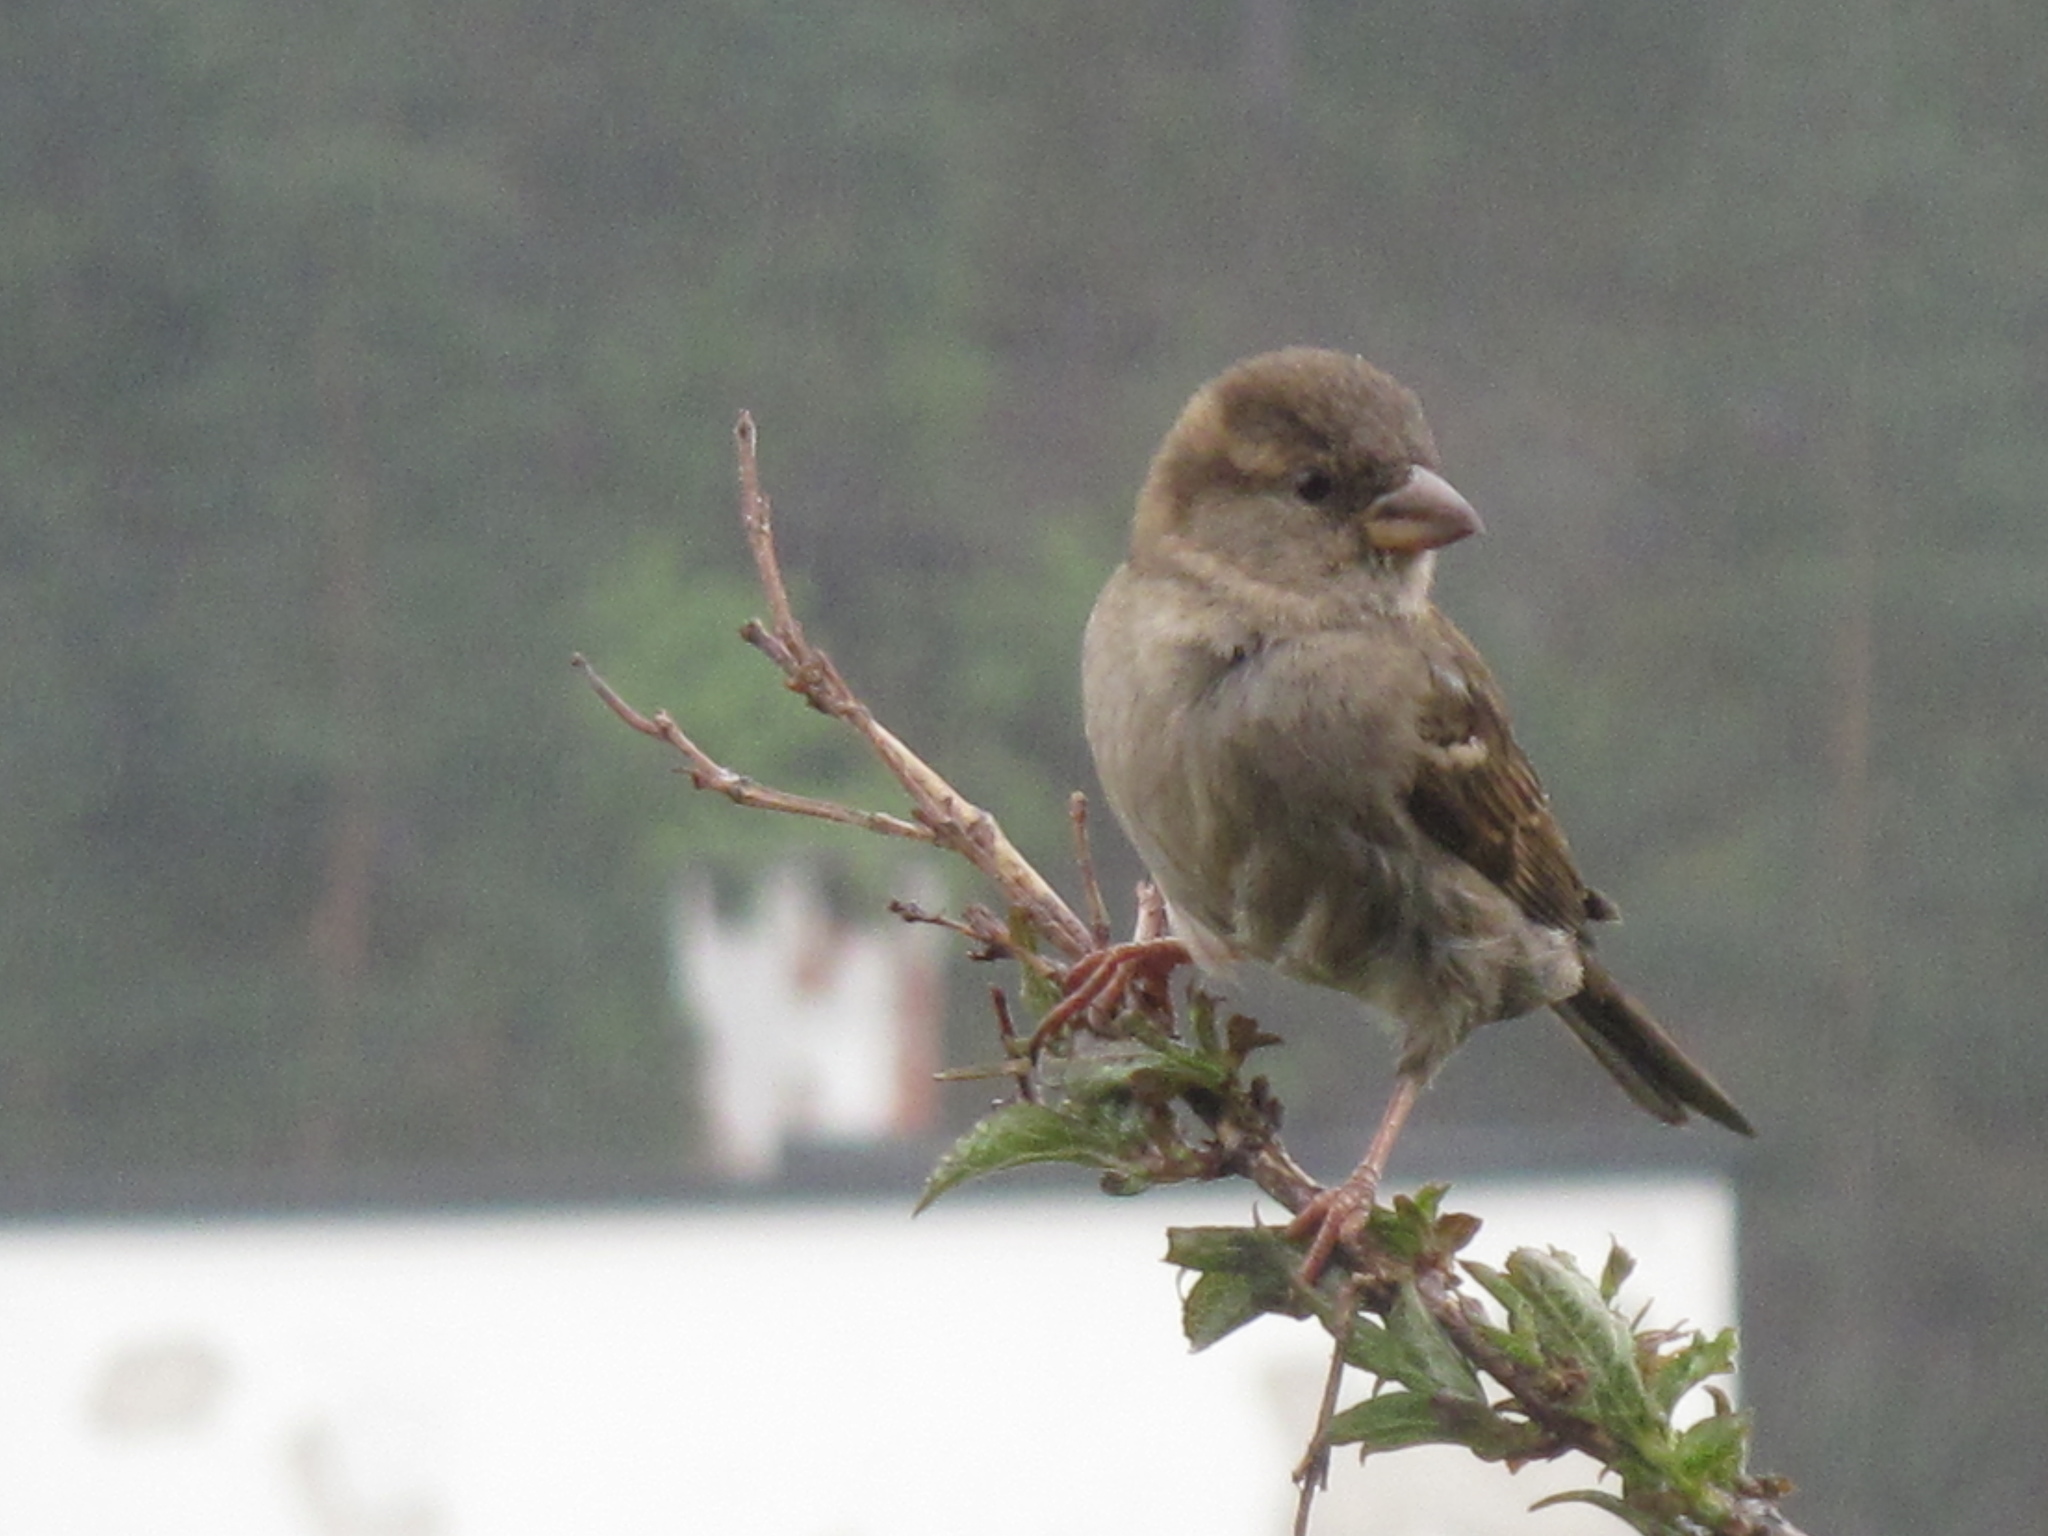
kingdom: Animalia
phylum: Chordata
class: Aves
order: Passeriformes
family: Passeridae
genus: Passer
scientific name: Passer domesticus
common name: House sparrow
